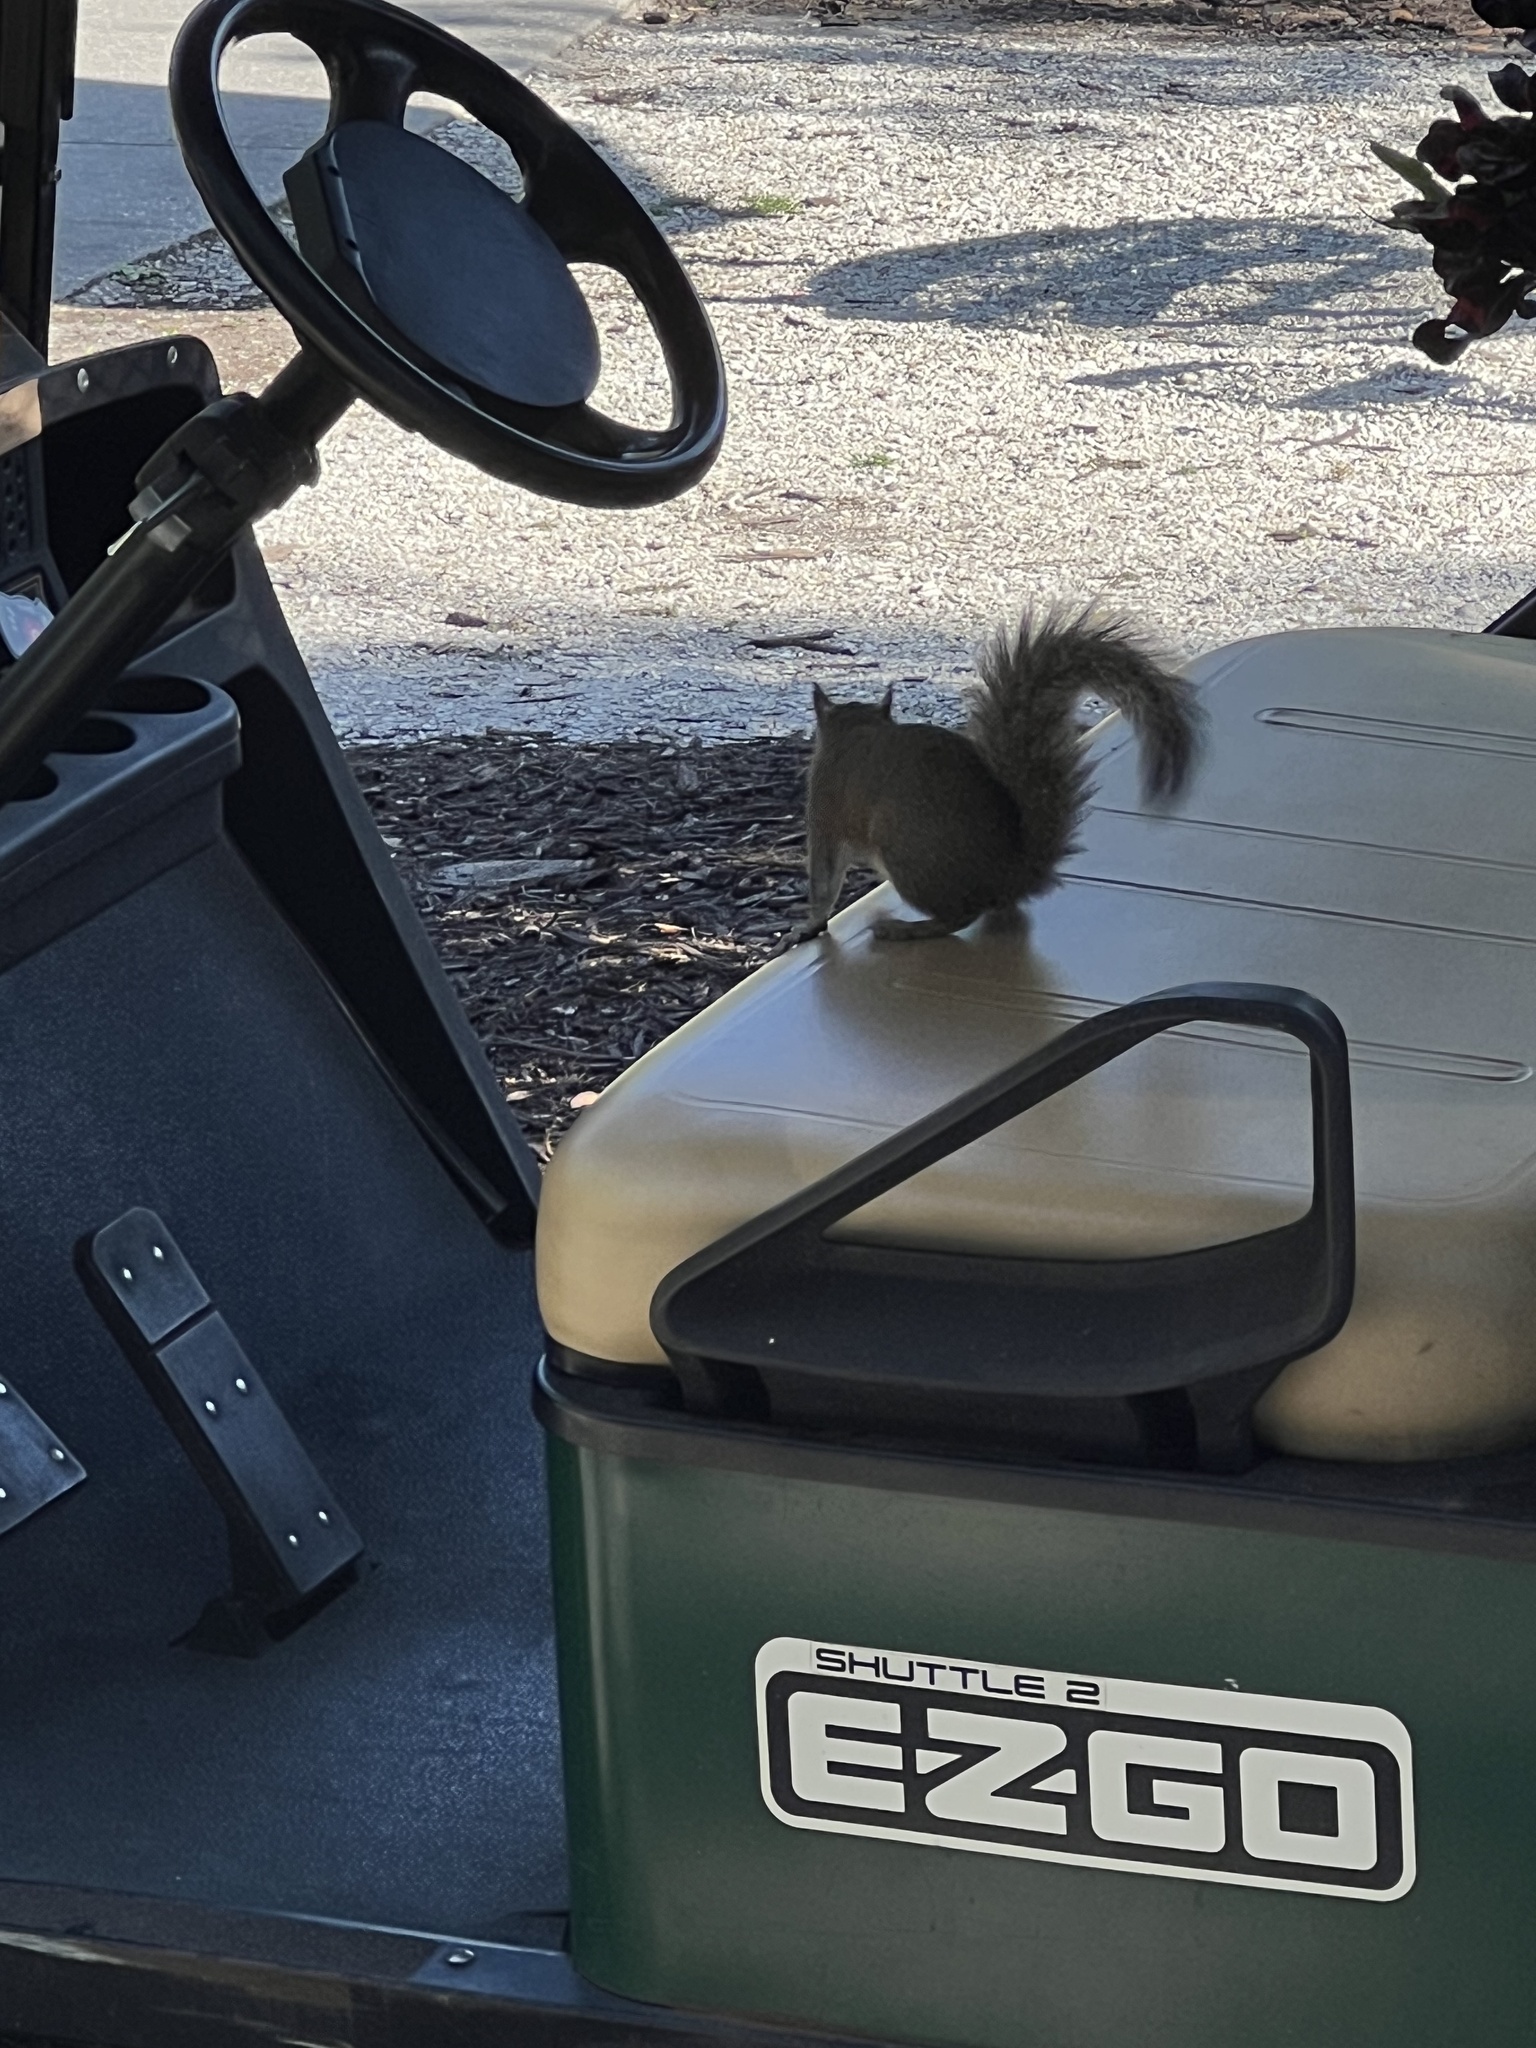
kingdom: Animalia
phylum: Chordata
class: Mammalia
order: Rodentia
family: Sciuridae
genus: Sciurus
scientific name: Sciurus carolinensis
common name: Eastern gray squirrel
